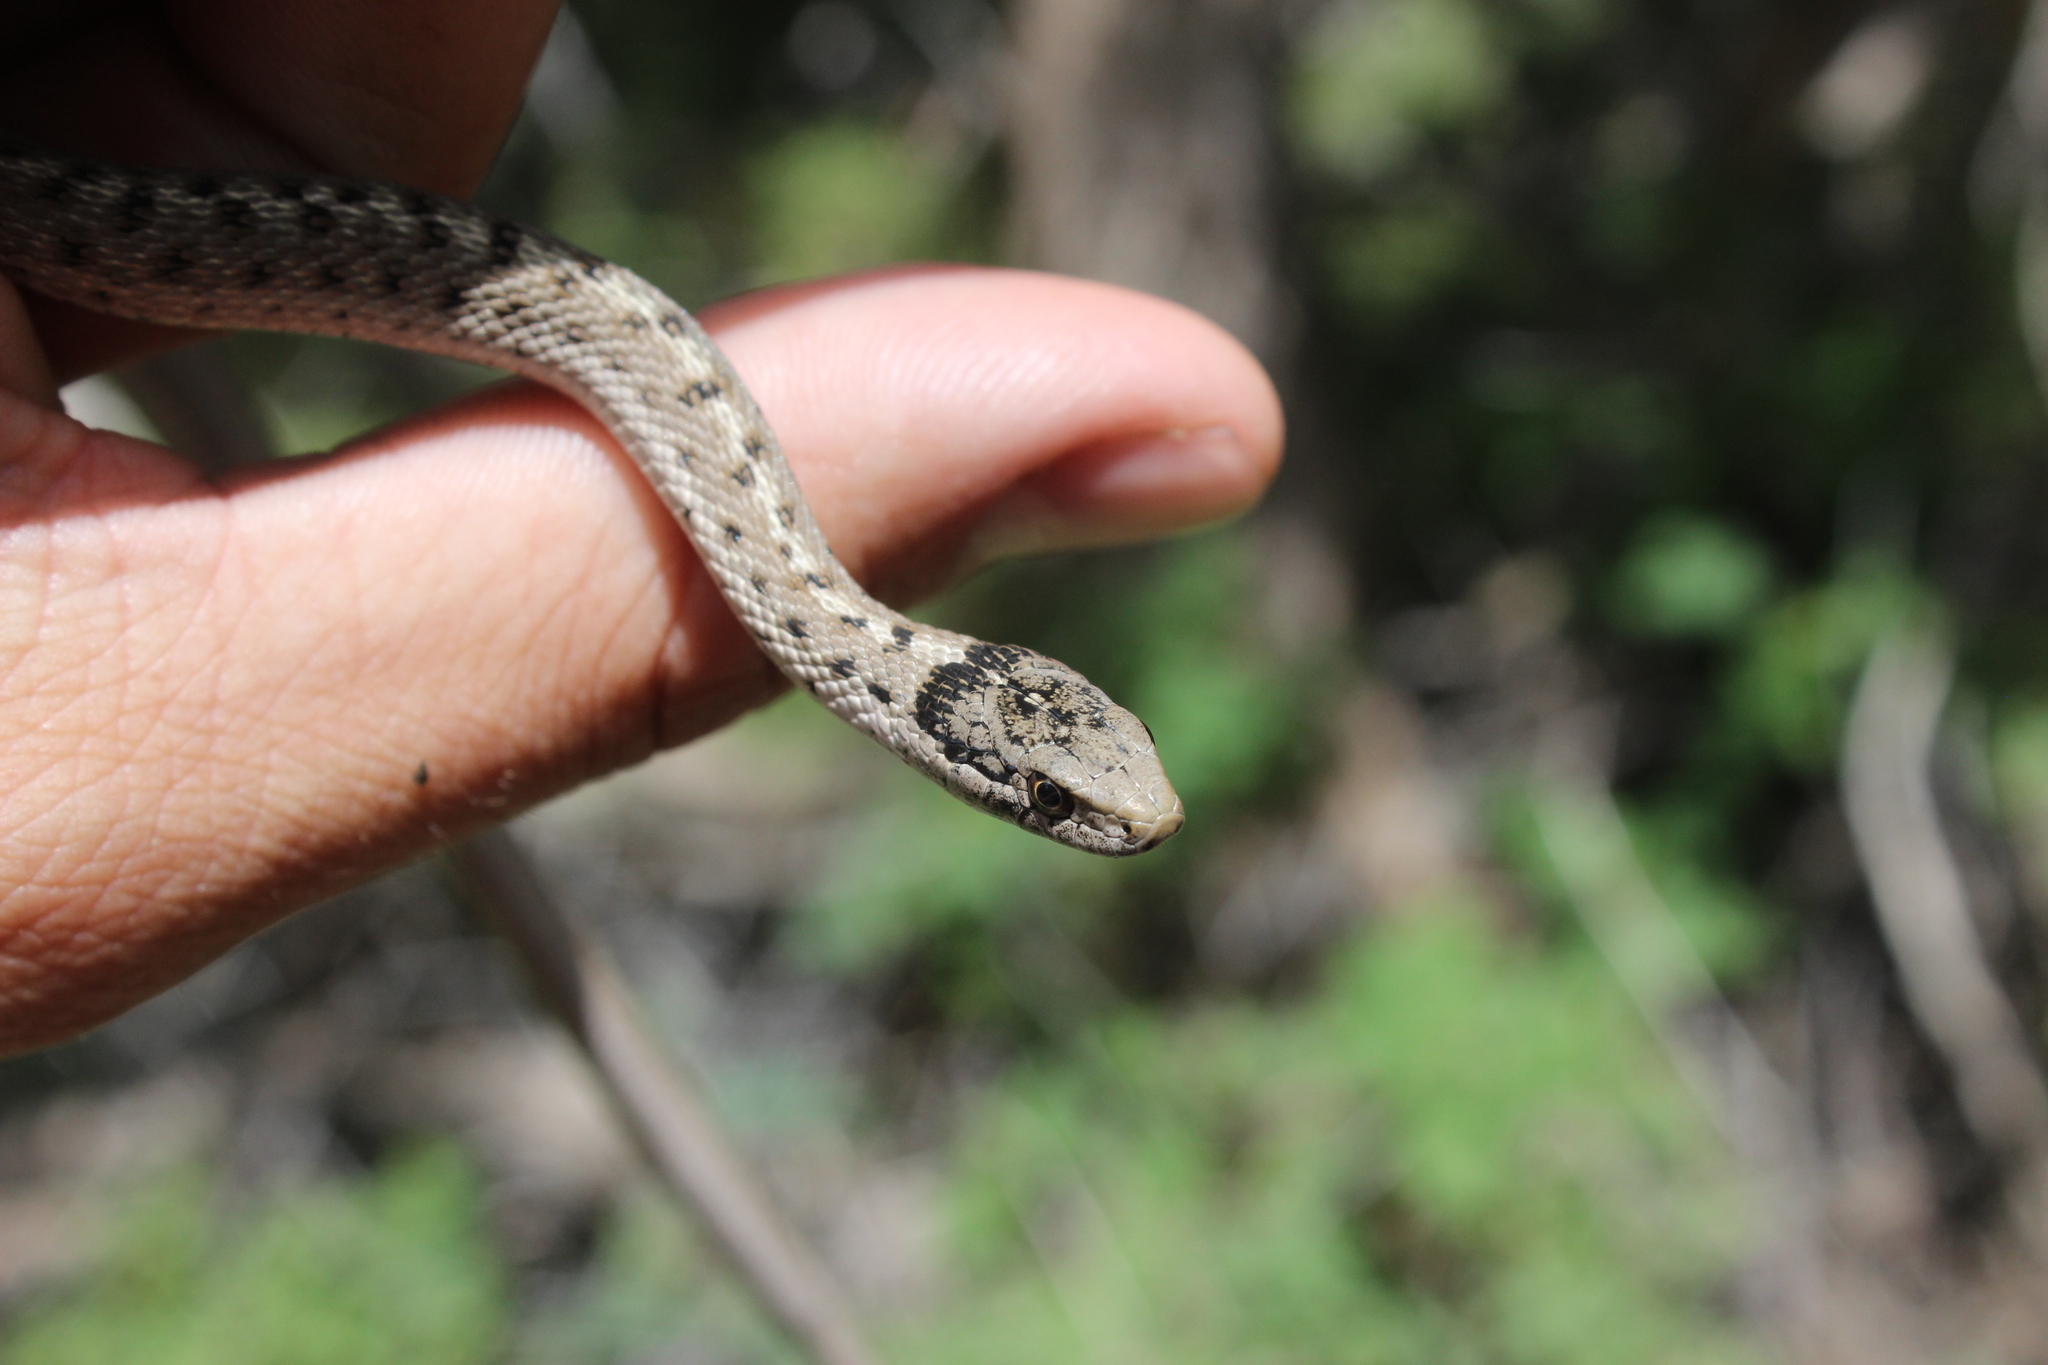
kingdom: Animalia
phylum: Chordata
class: Squamata
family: Colubridae
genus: Thamnophis
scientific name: Thamnophis elegans
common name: Western terrestrial garter snake
